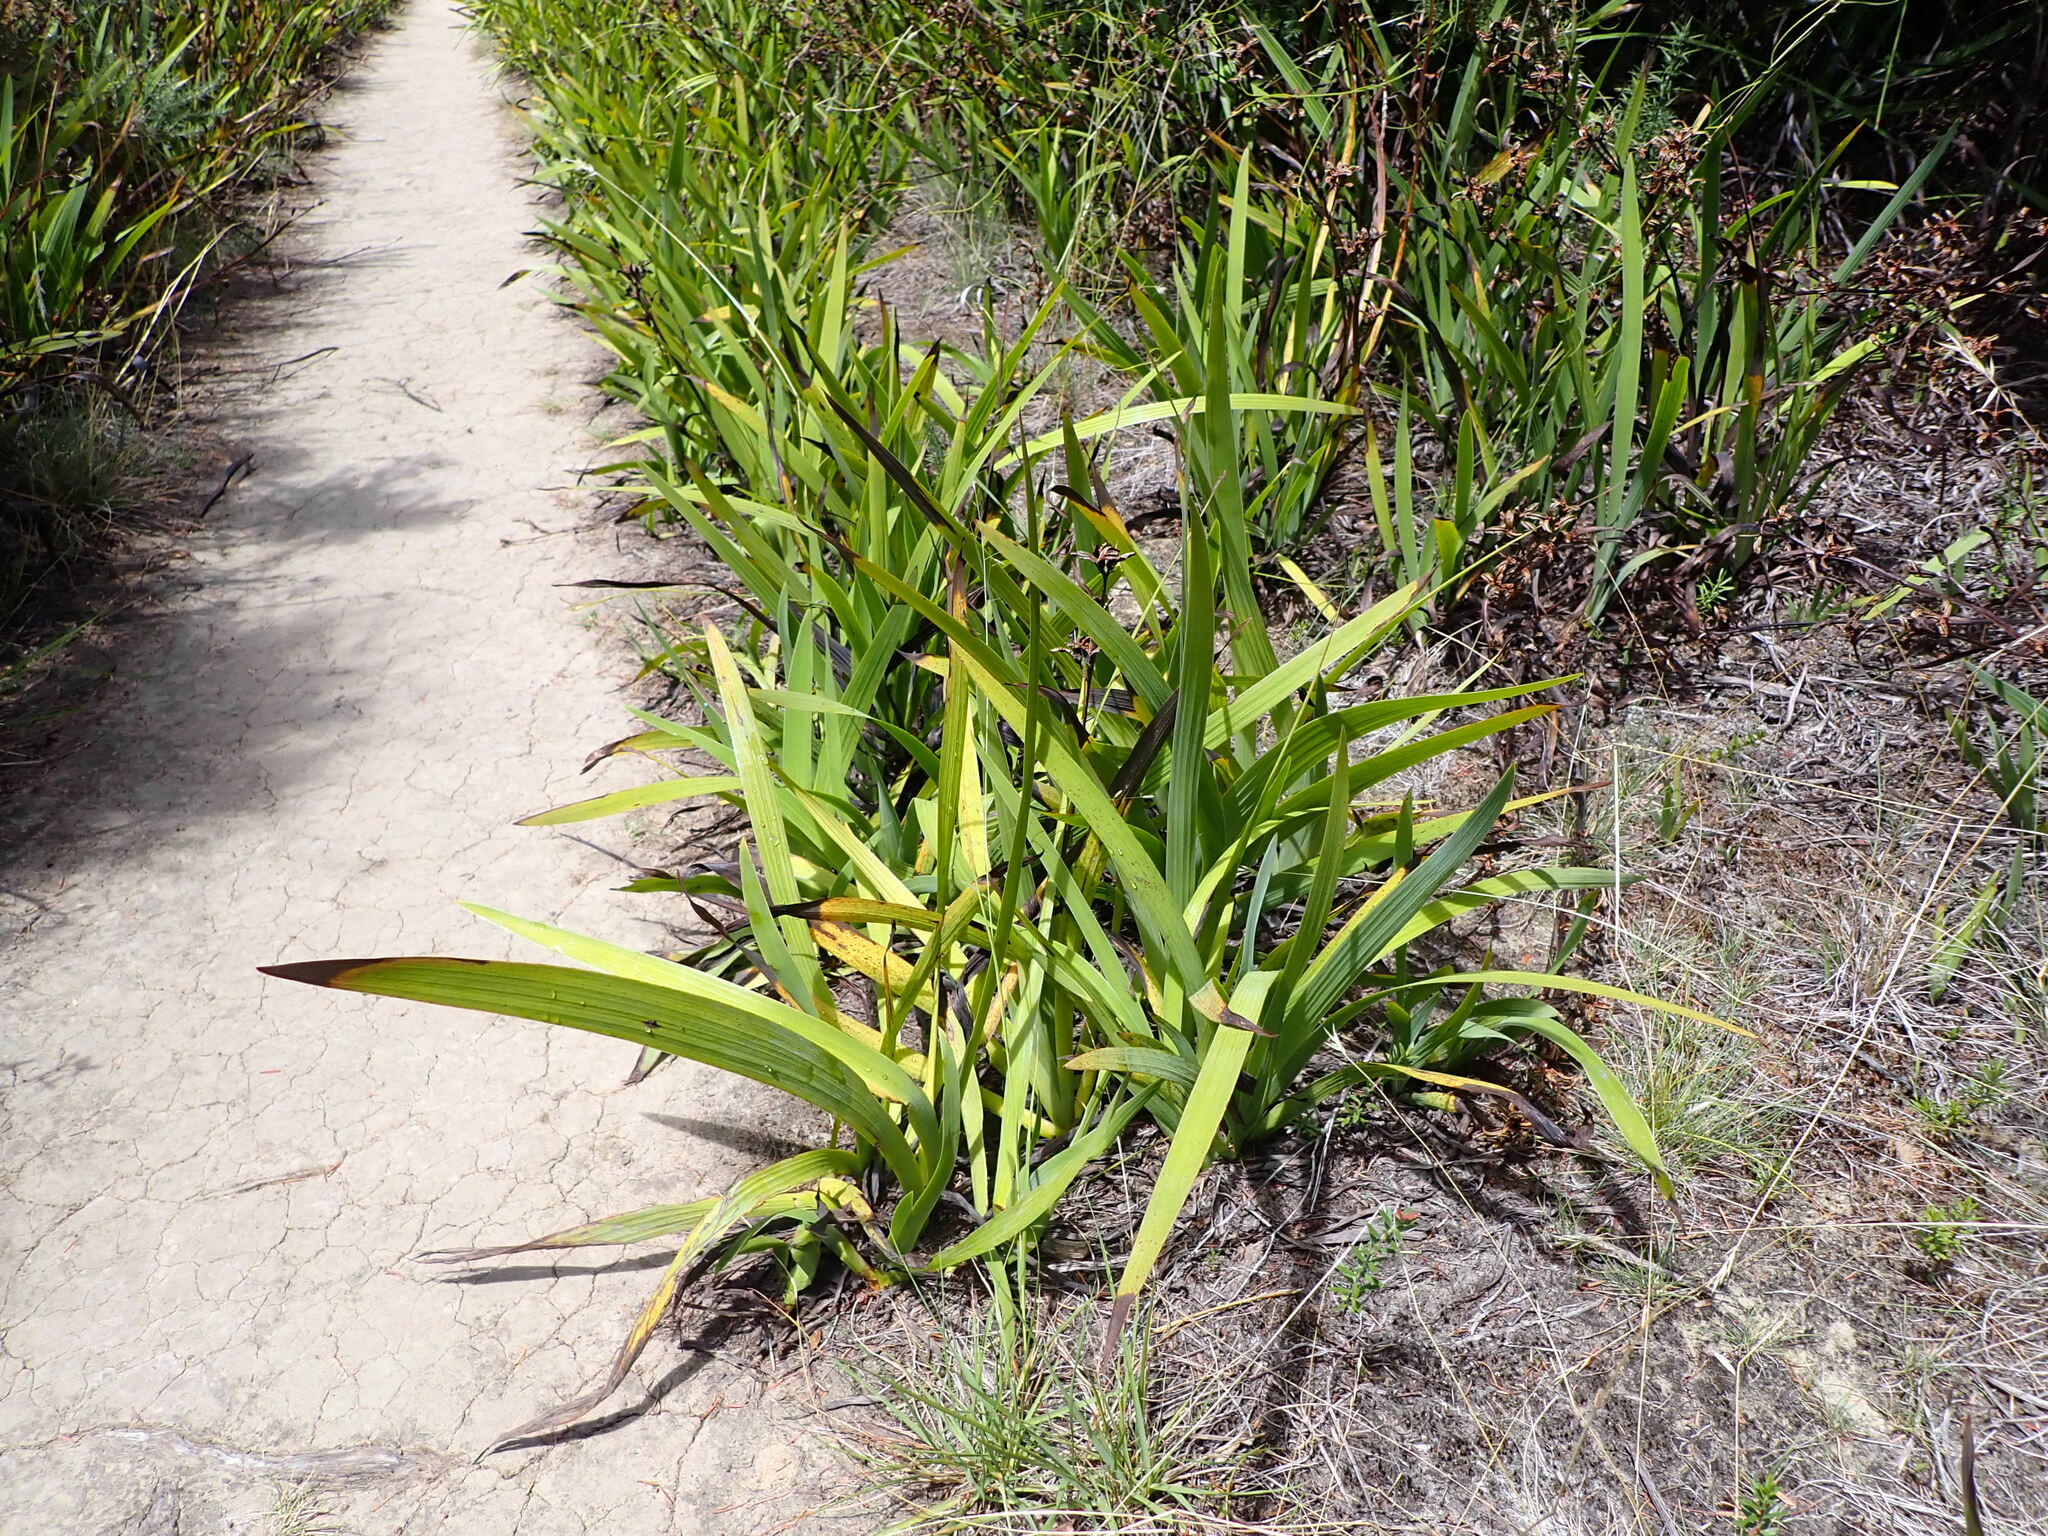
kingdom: Plantae
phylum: Tracheophyta
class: Liliopsida
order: Asparagales
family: Iridaceae
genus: Aristea
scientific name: Aristea ecklonii
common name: Blue corn-lily
